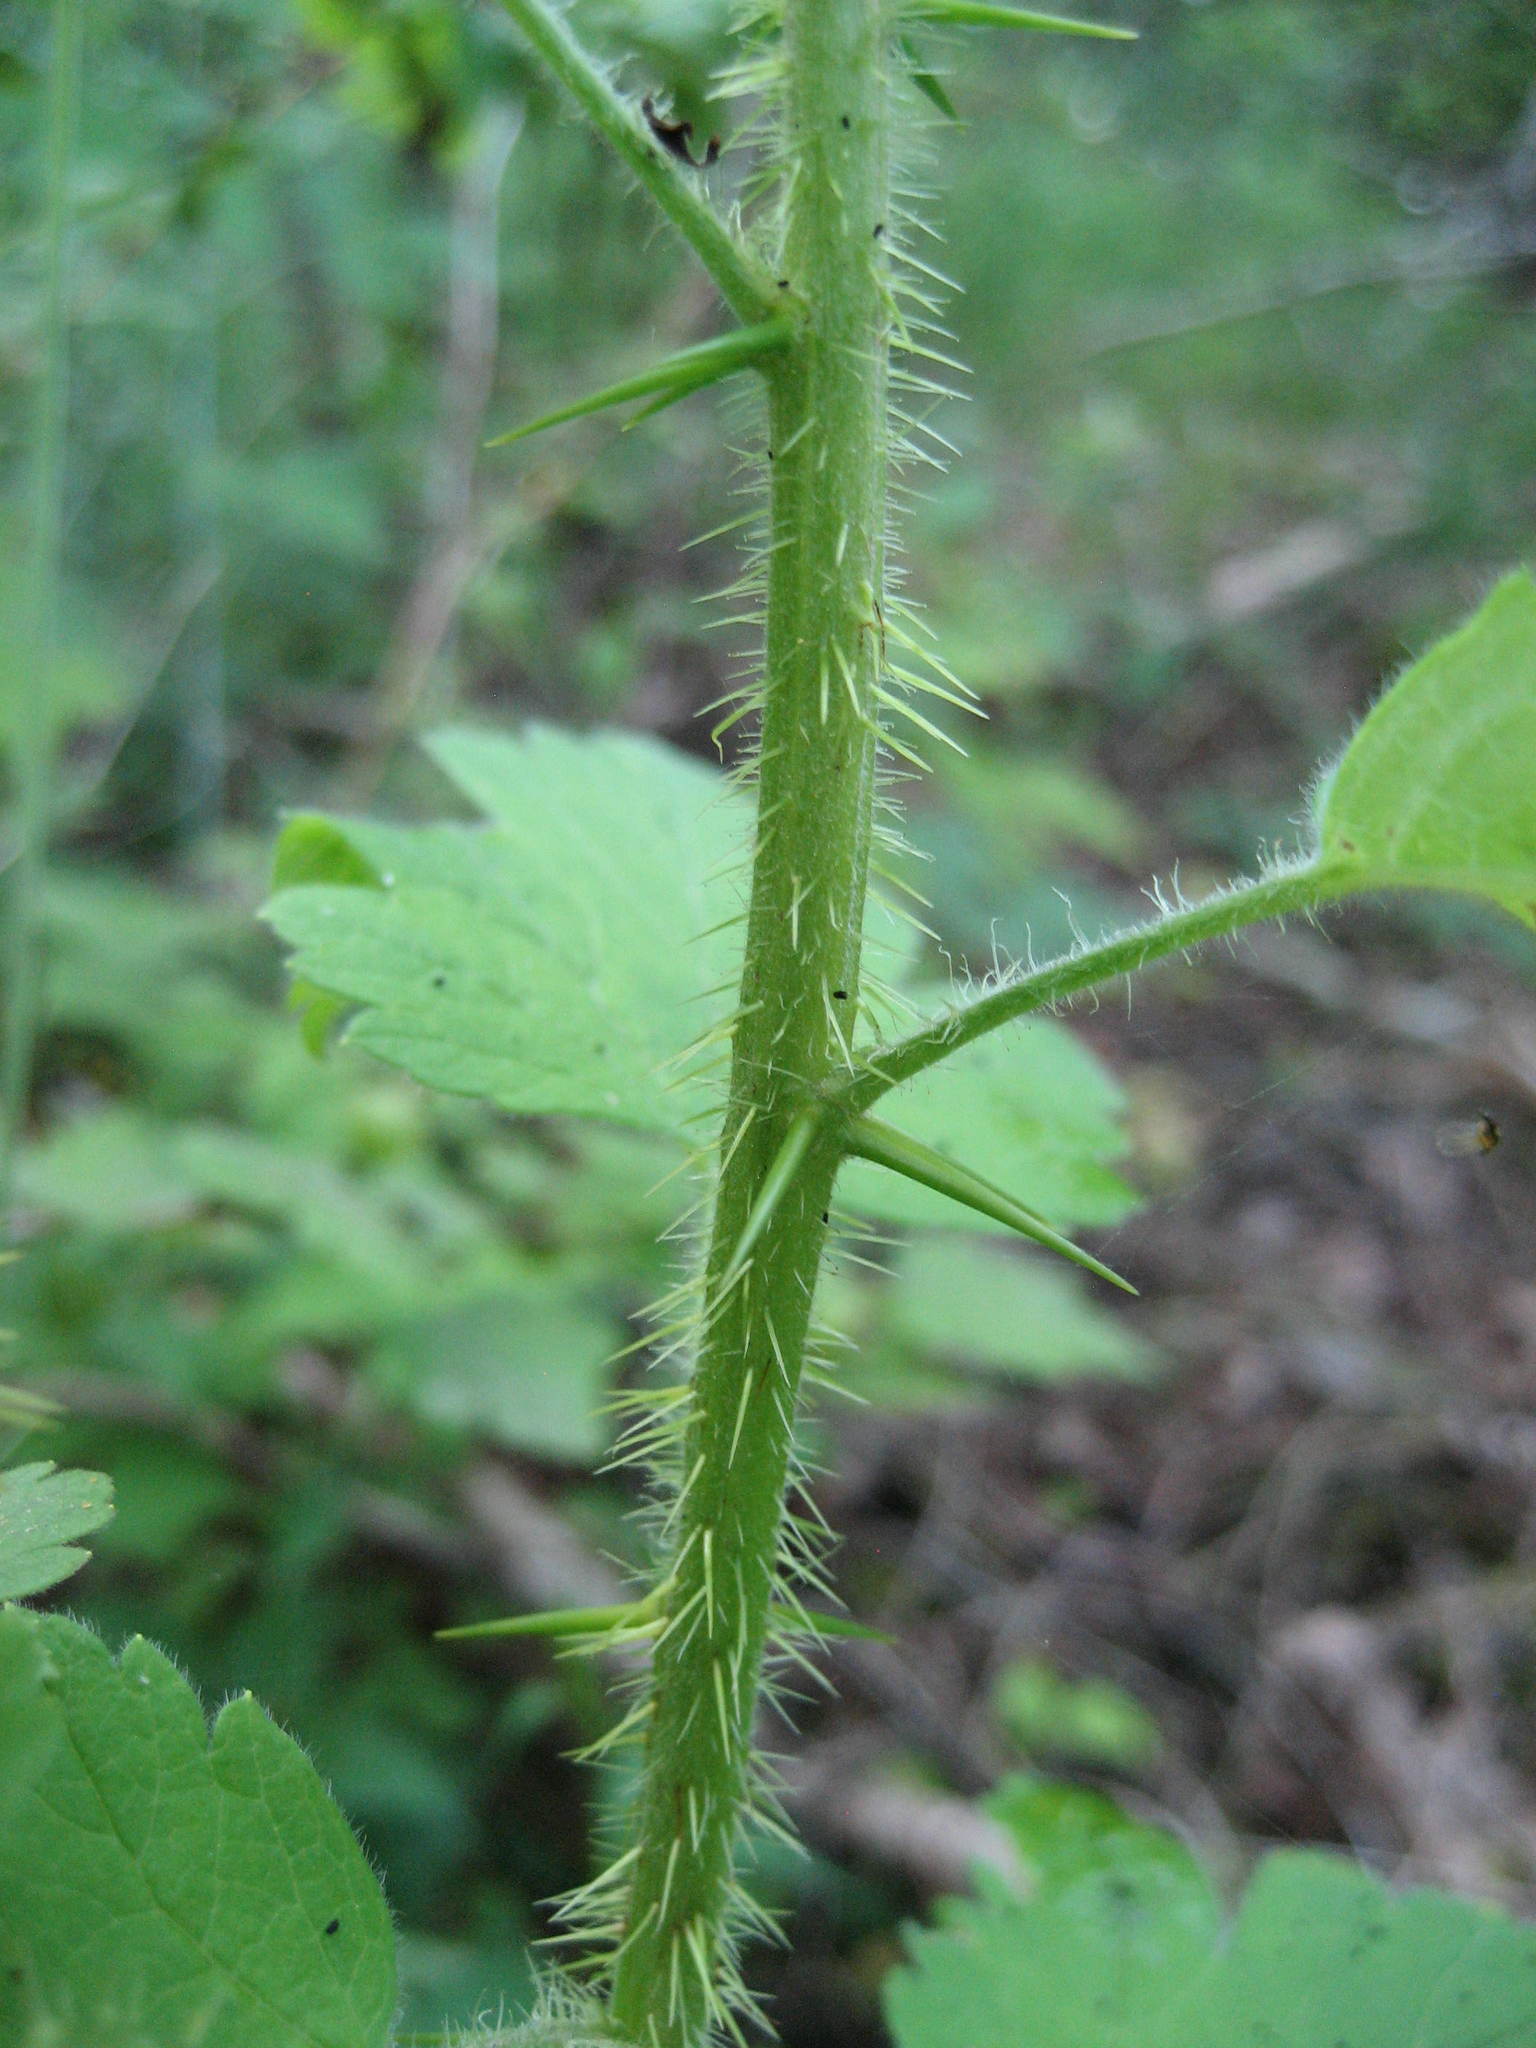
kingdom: Plantae
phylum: Tracheophyta
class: Magnoliopsida
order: Saxifragales
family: Grossulariaceae
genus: Ribes
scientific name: Ribes cynosbati
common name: American gooseberry
